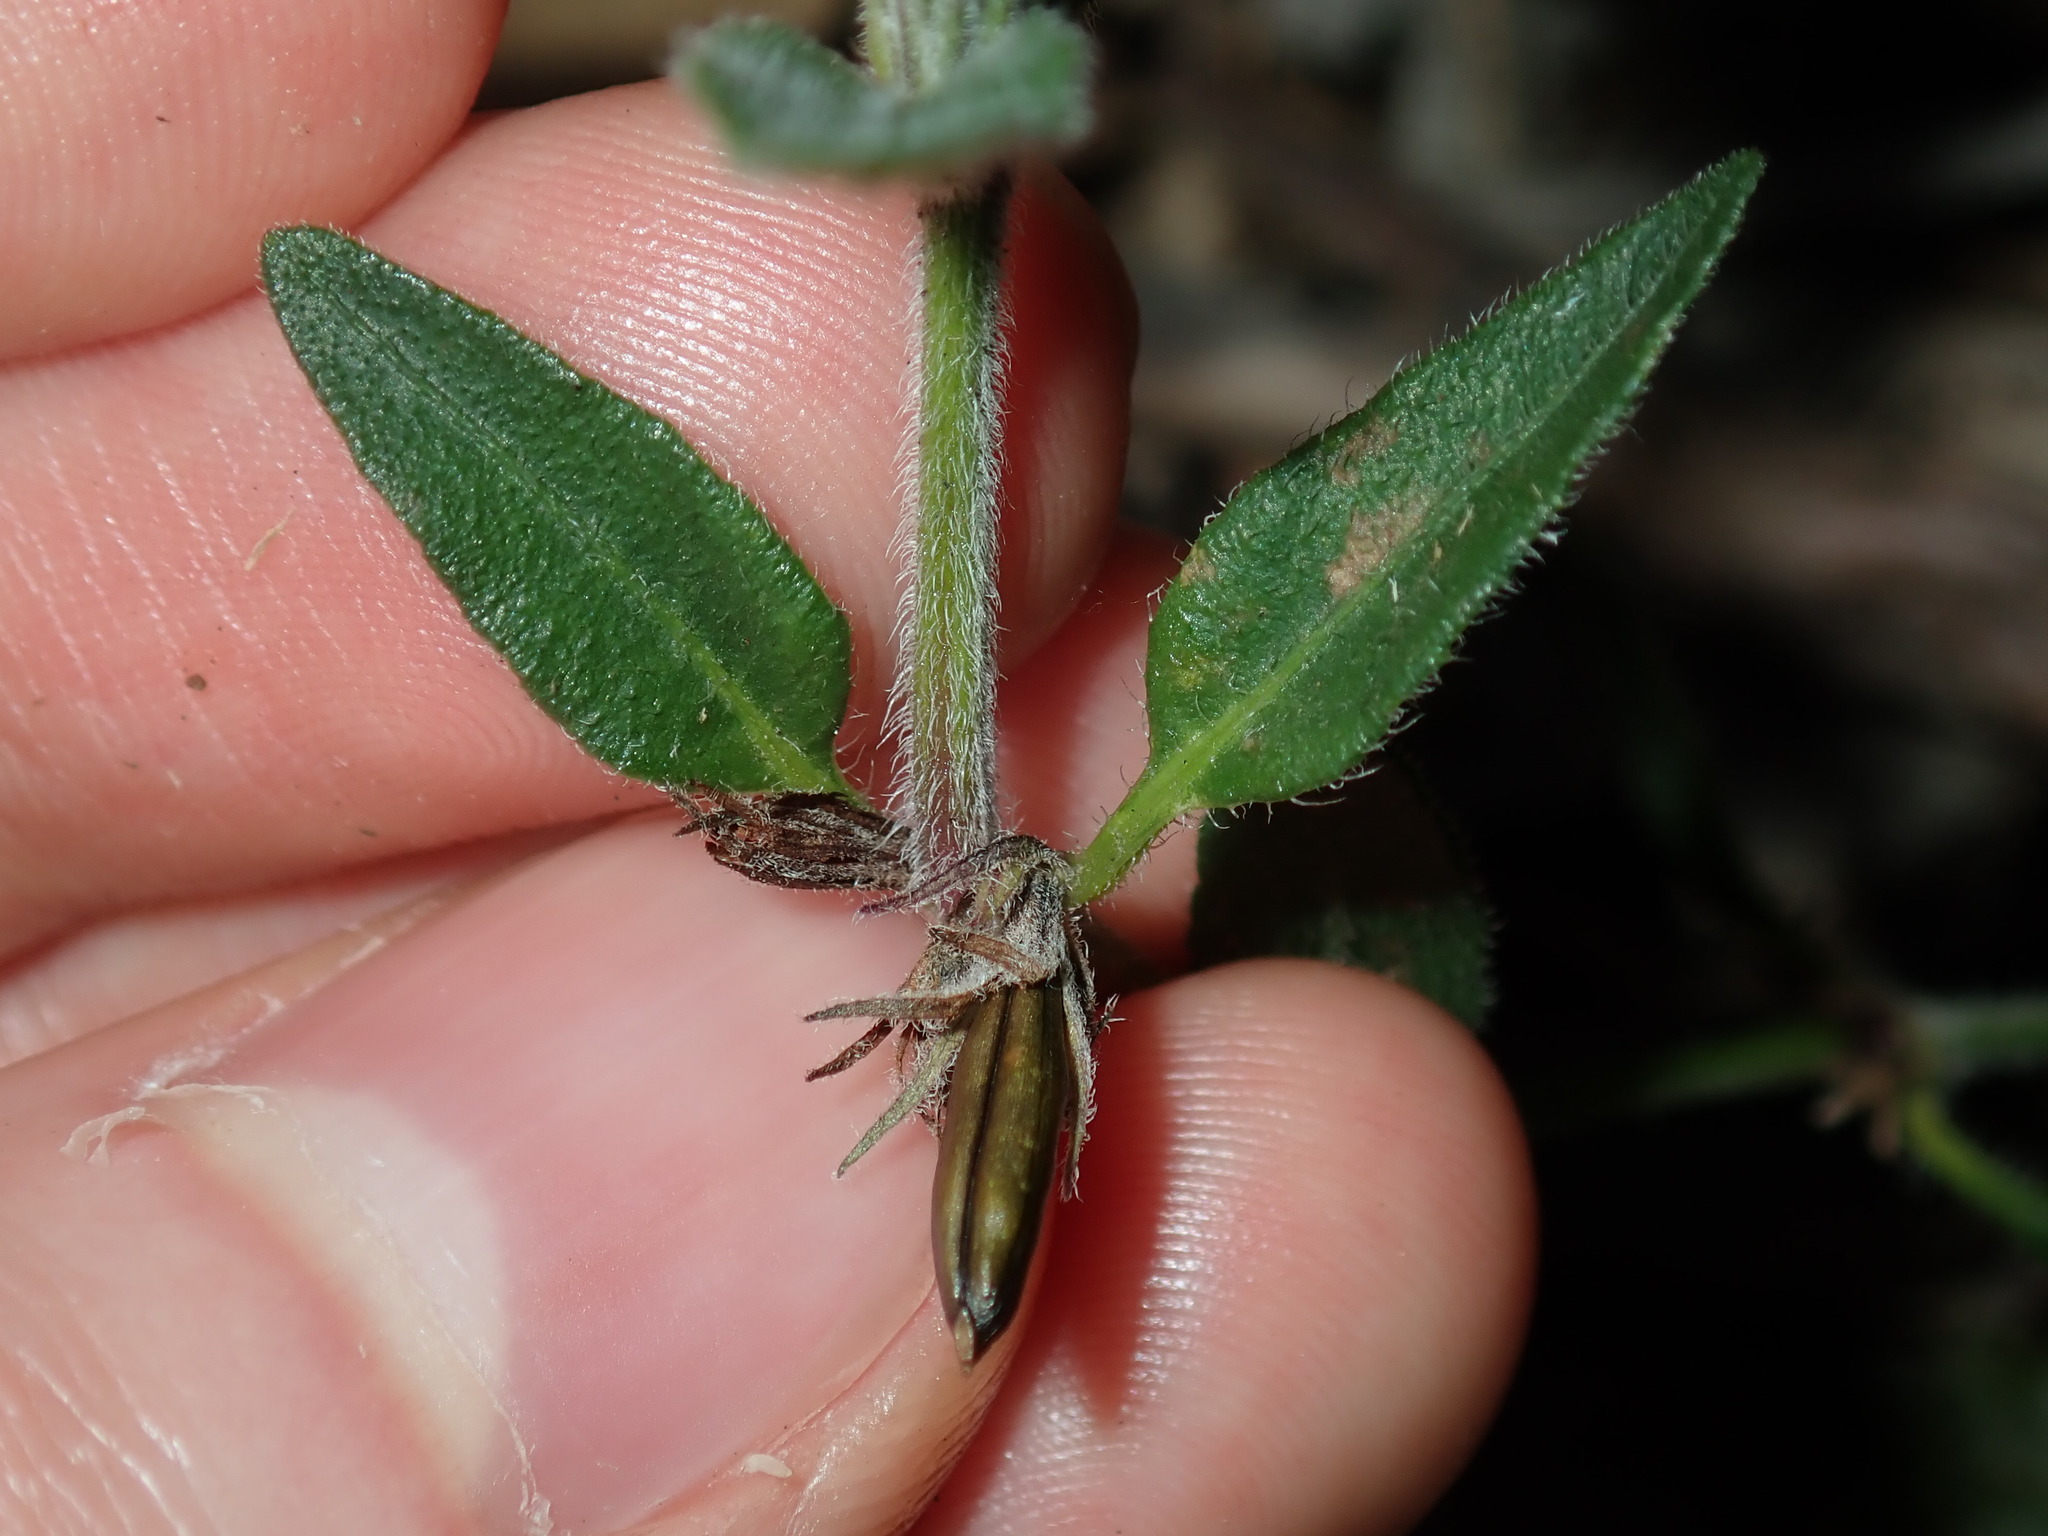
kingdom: Plantae
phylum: Tracheophyta
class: Magnoliopsida
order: Lamiales
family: Acanthaceae
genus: Brunoniella
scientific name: Brunoniella australis
